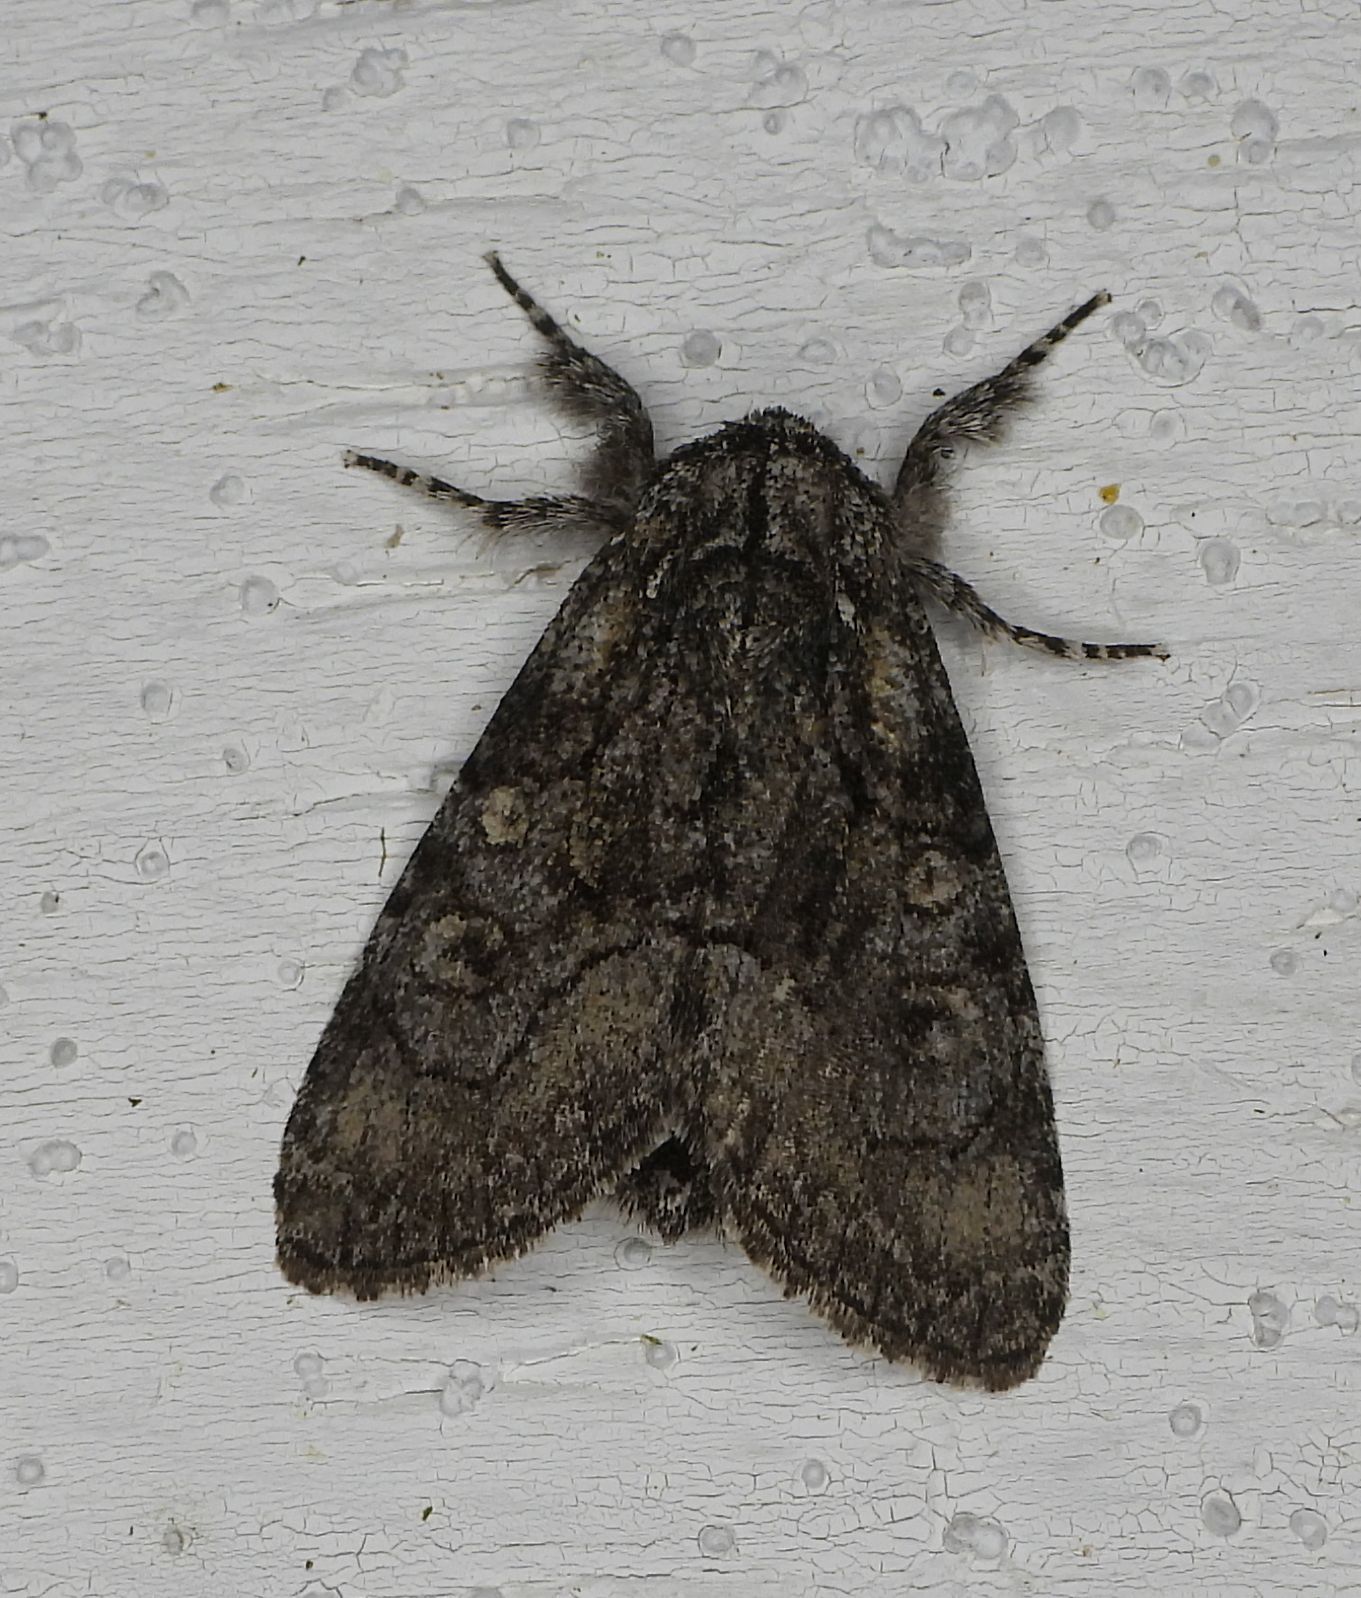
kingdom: Animalia
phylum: Arthropoda
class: Insecta
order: Lepidoptera
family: Noctuidae
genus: Raphia
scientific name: Raphia frater
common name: Brother
